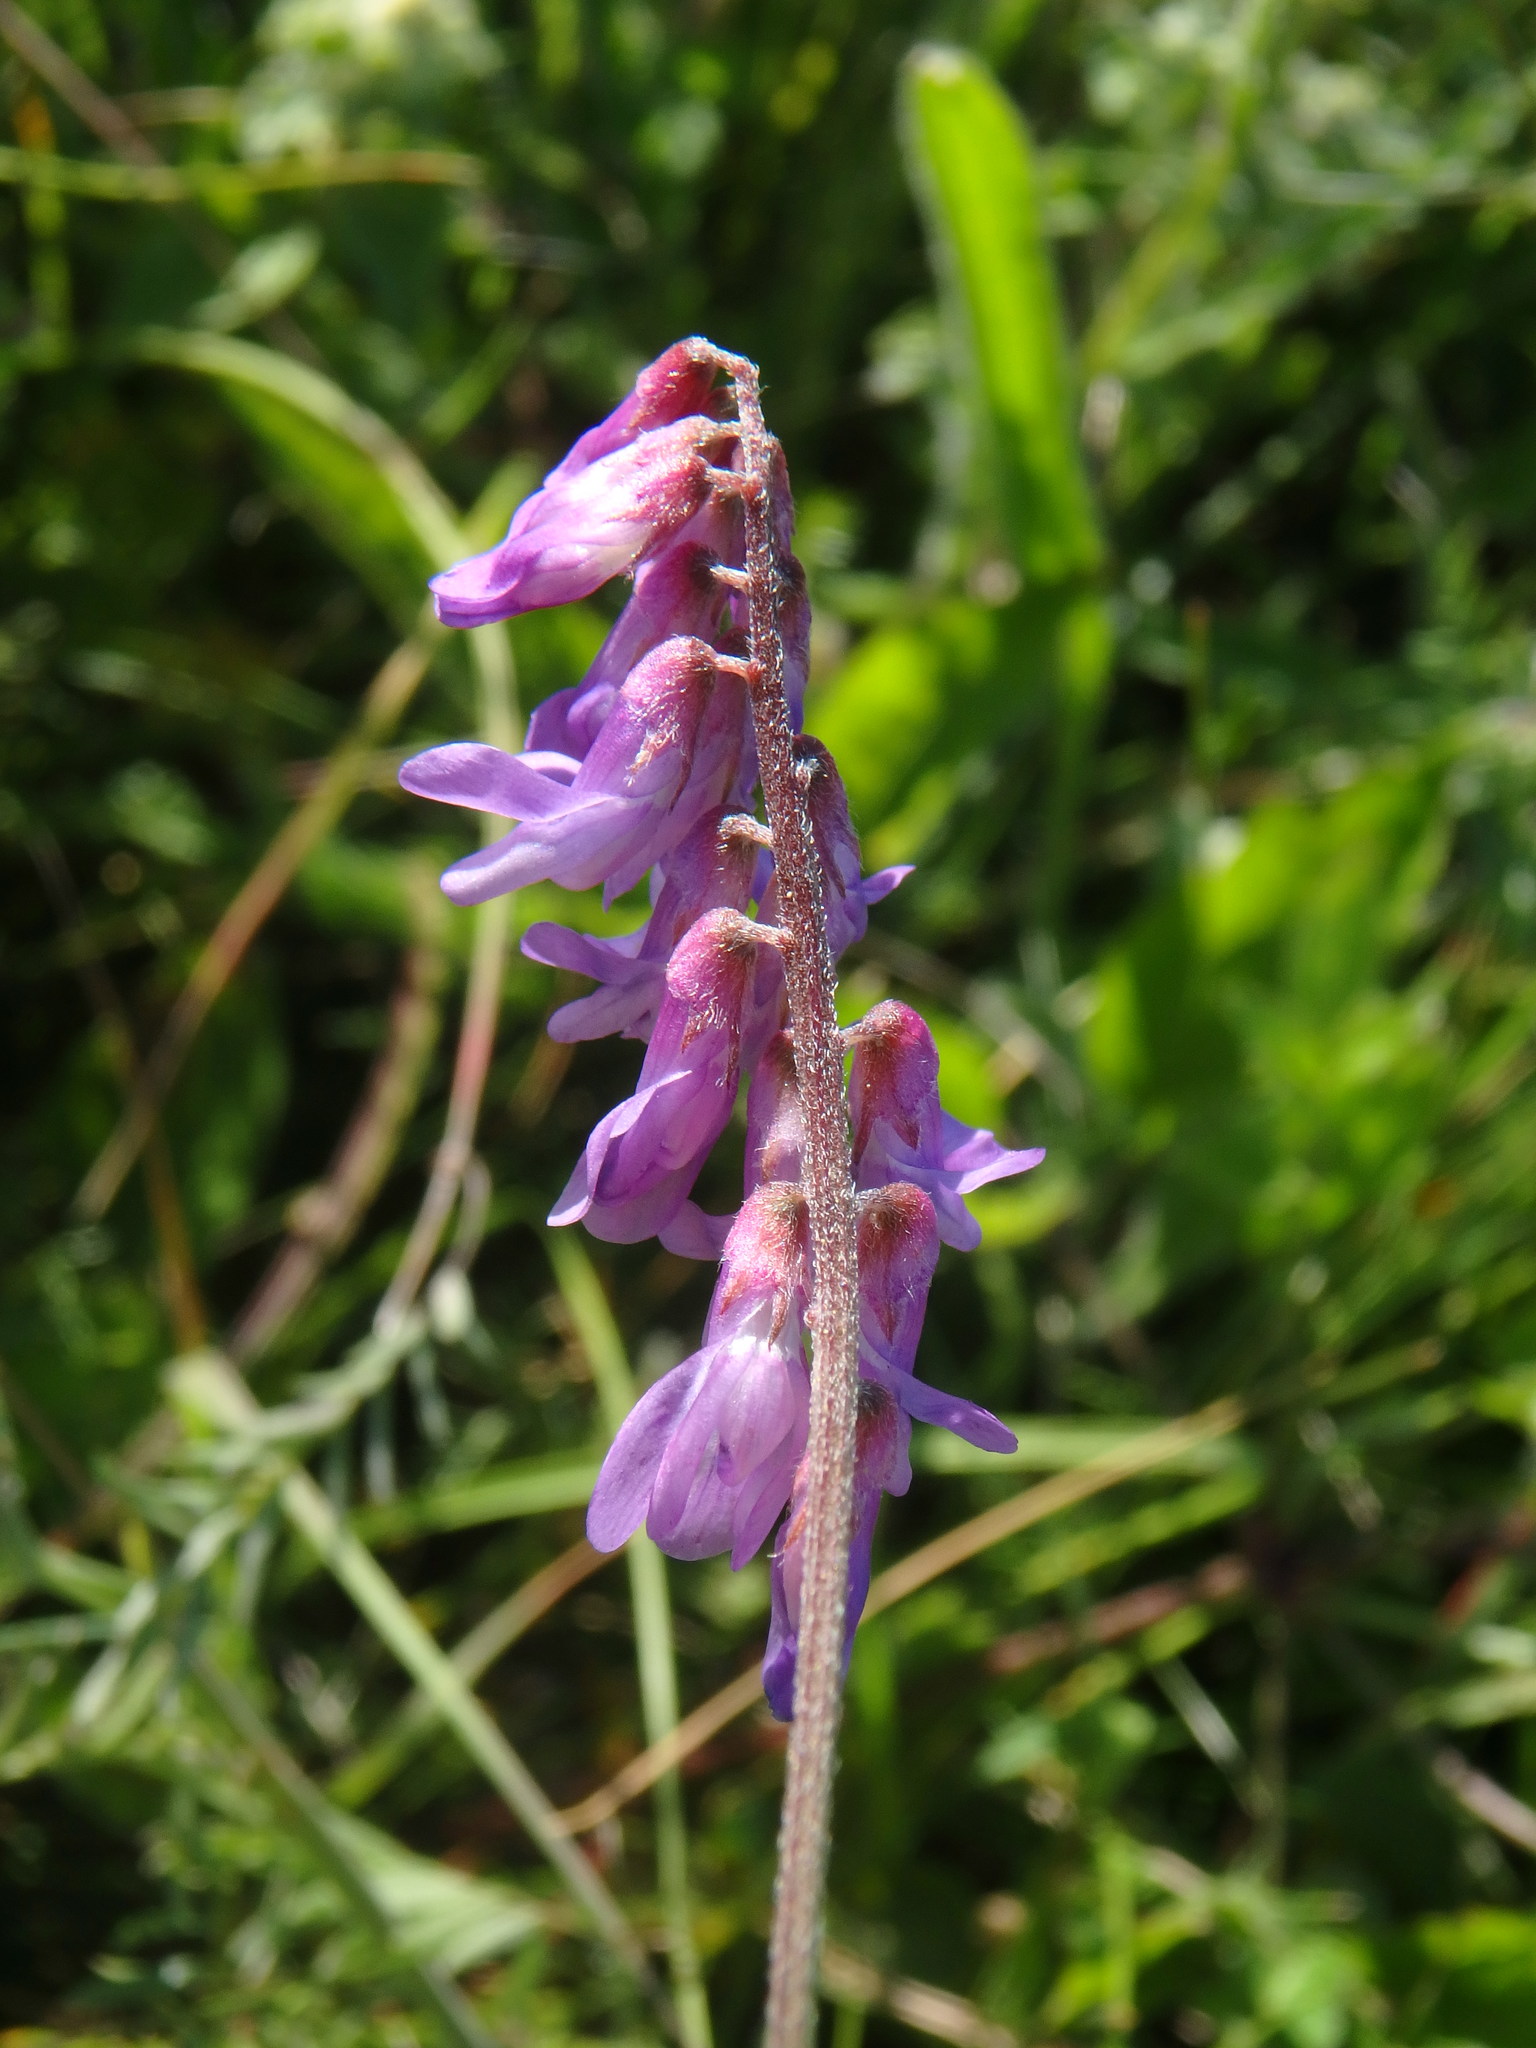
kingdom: Plantae
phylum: Tracheophyta
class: Magnoliopsida
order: Fabales
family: Fabaceae
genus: Vicia
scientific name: Vicia cracca
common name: Bird vetch
